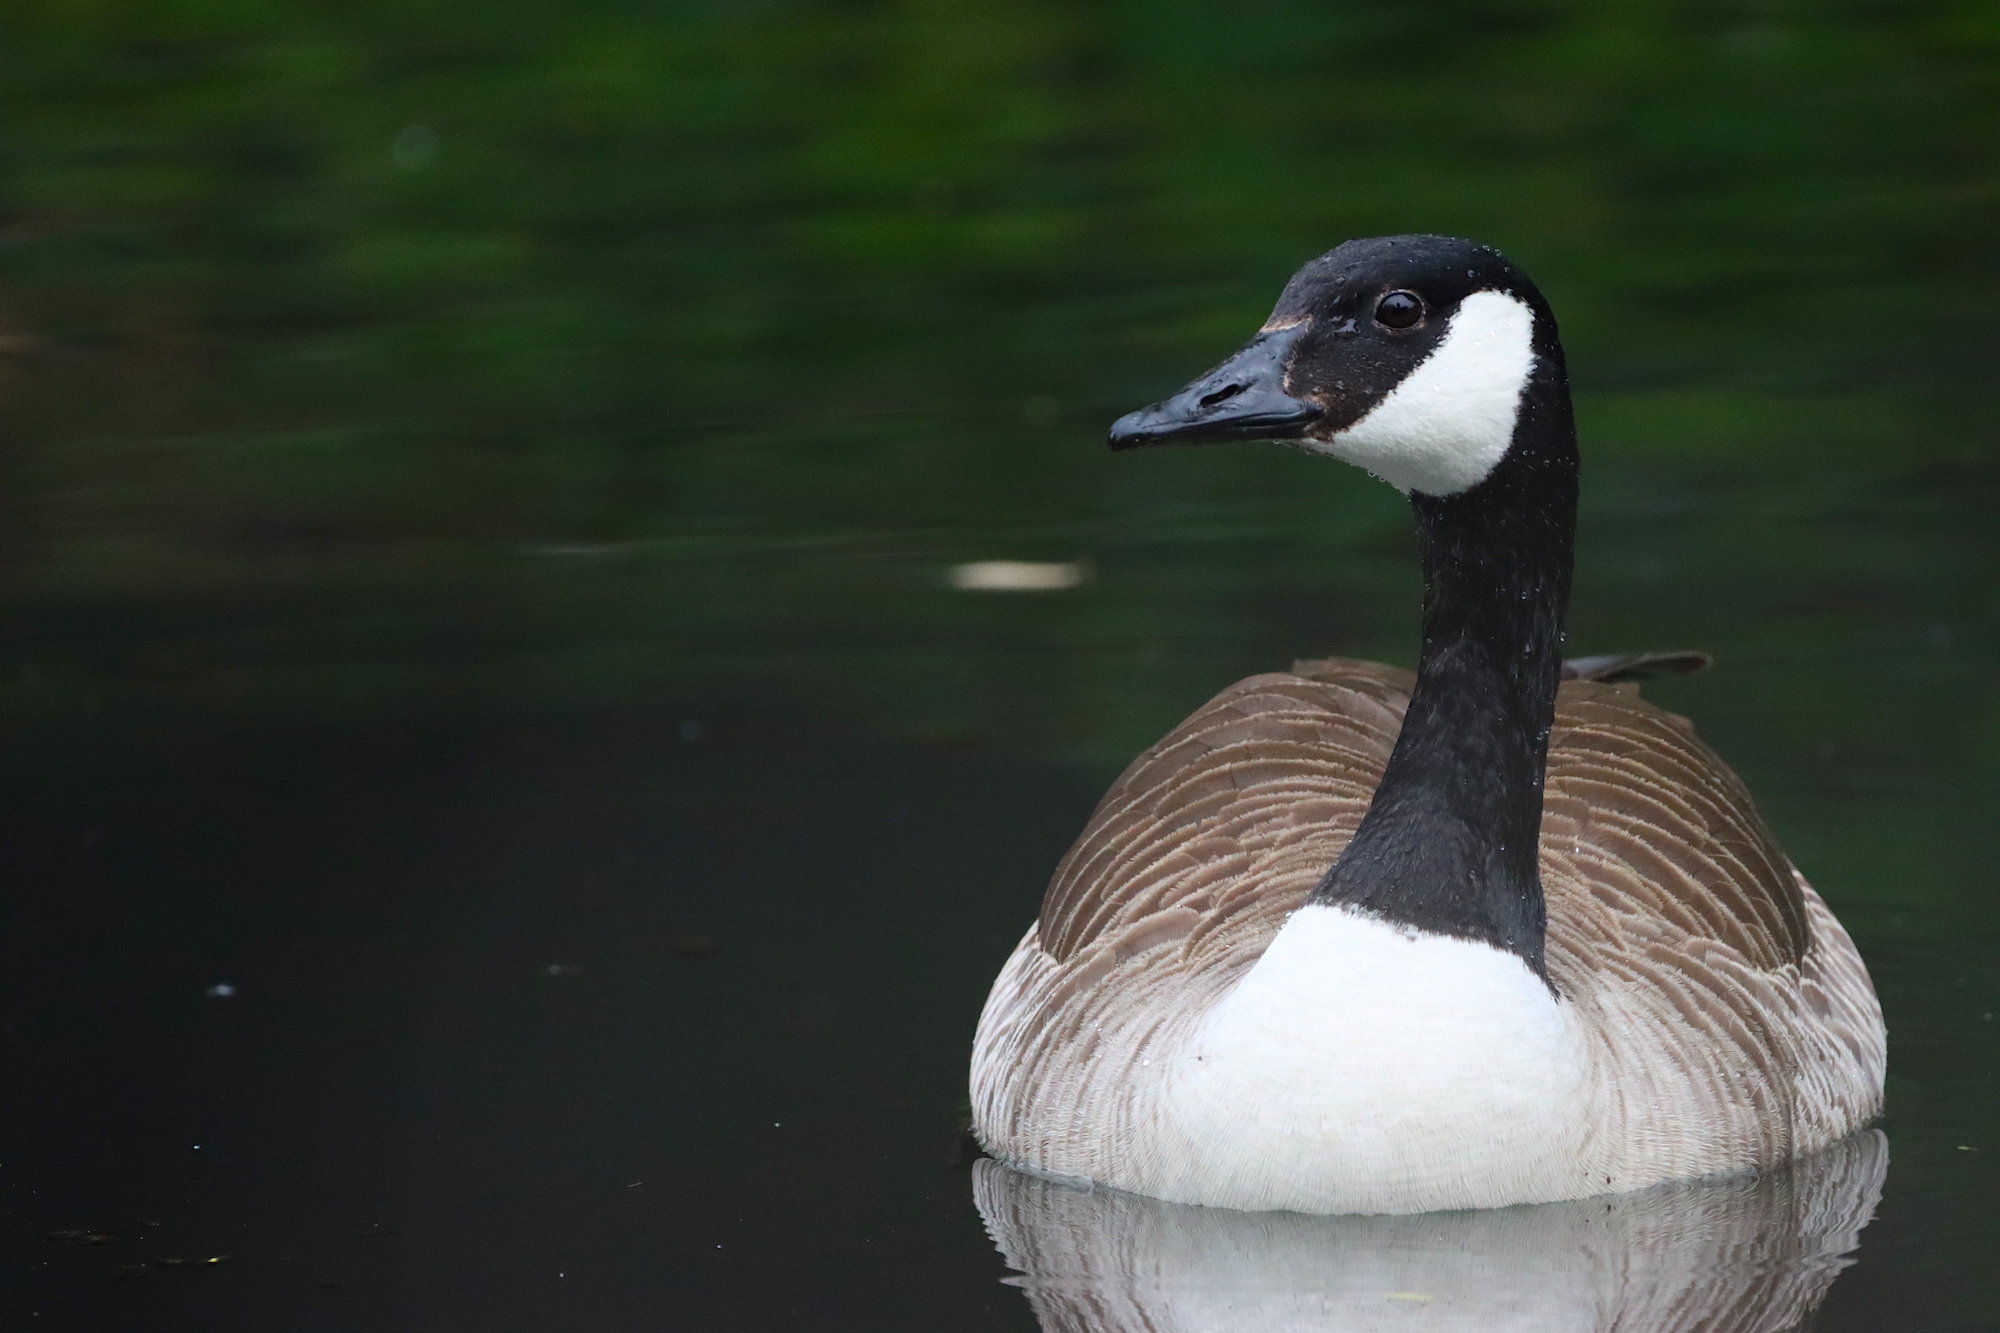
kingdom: Animalia
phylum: Chordata
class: Aves
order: Anseriformes
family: Anatidae
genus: Branta
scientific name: Branta canadensis
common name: Canada goose
